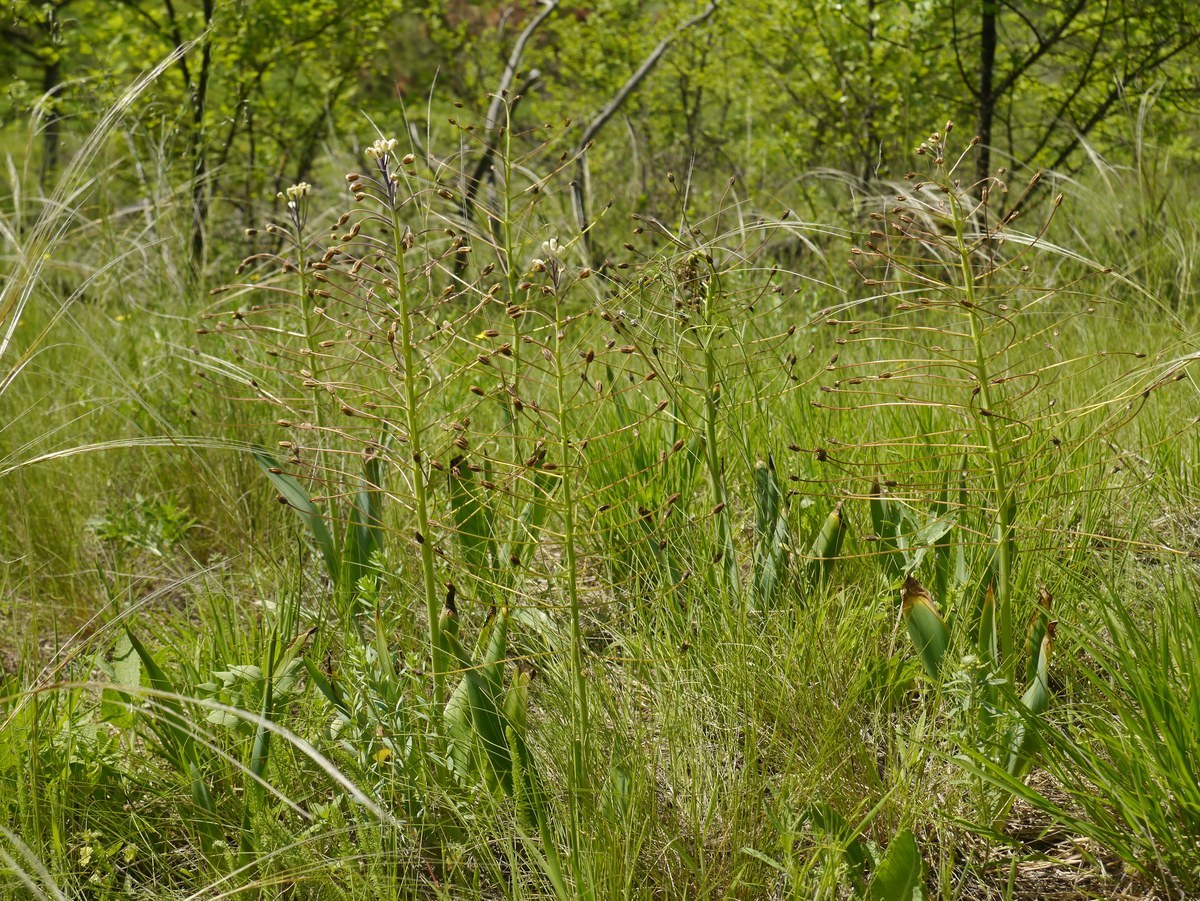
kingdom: Plantae
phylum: Tracheophyta
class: Liliopsida
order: Asparagales
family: Asparagaceae
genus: Bellevalia
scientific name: Bellevalia speciosa
